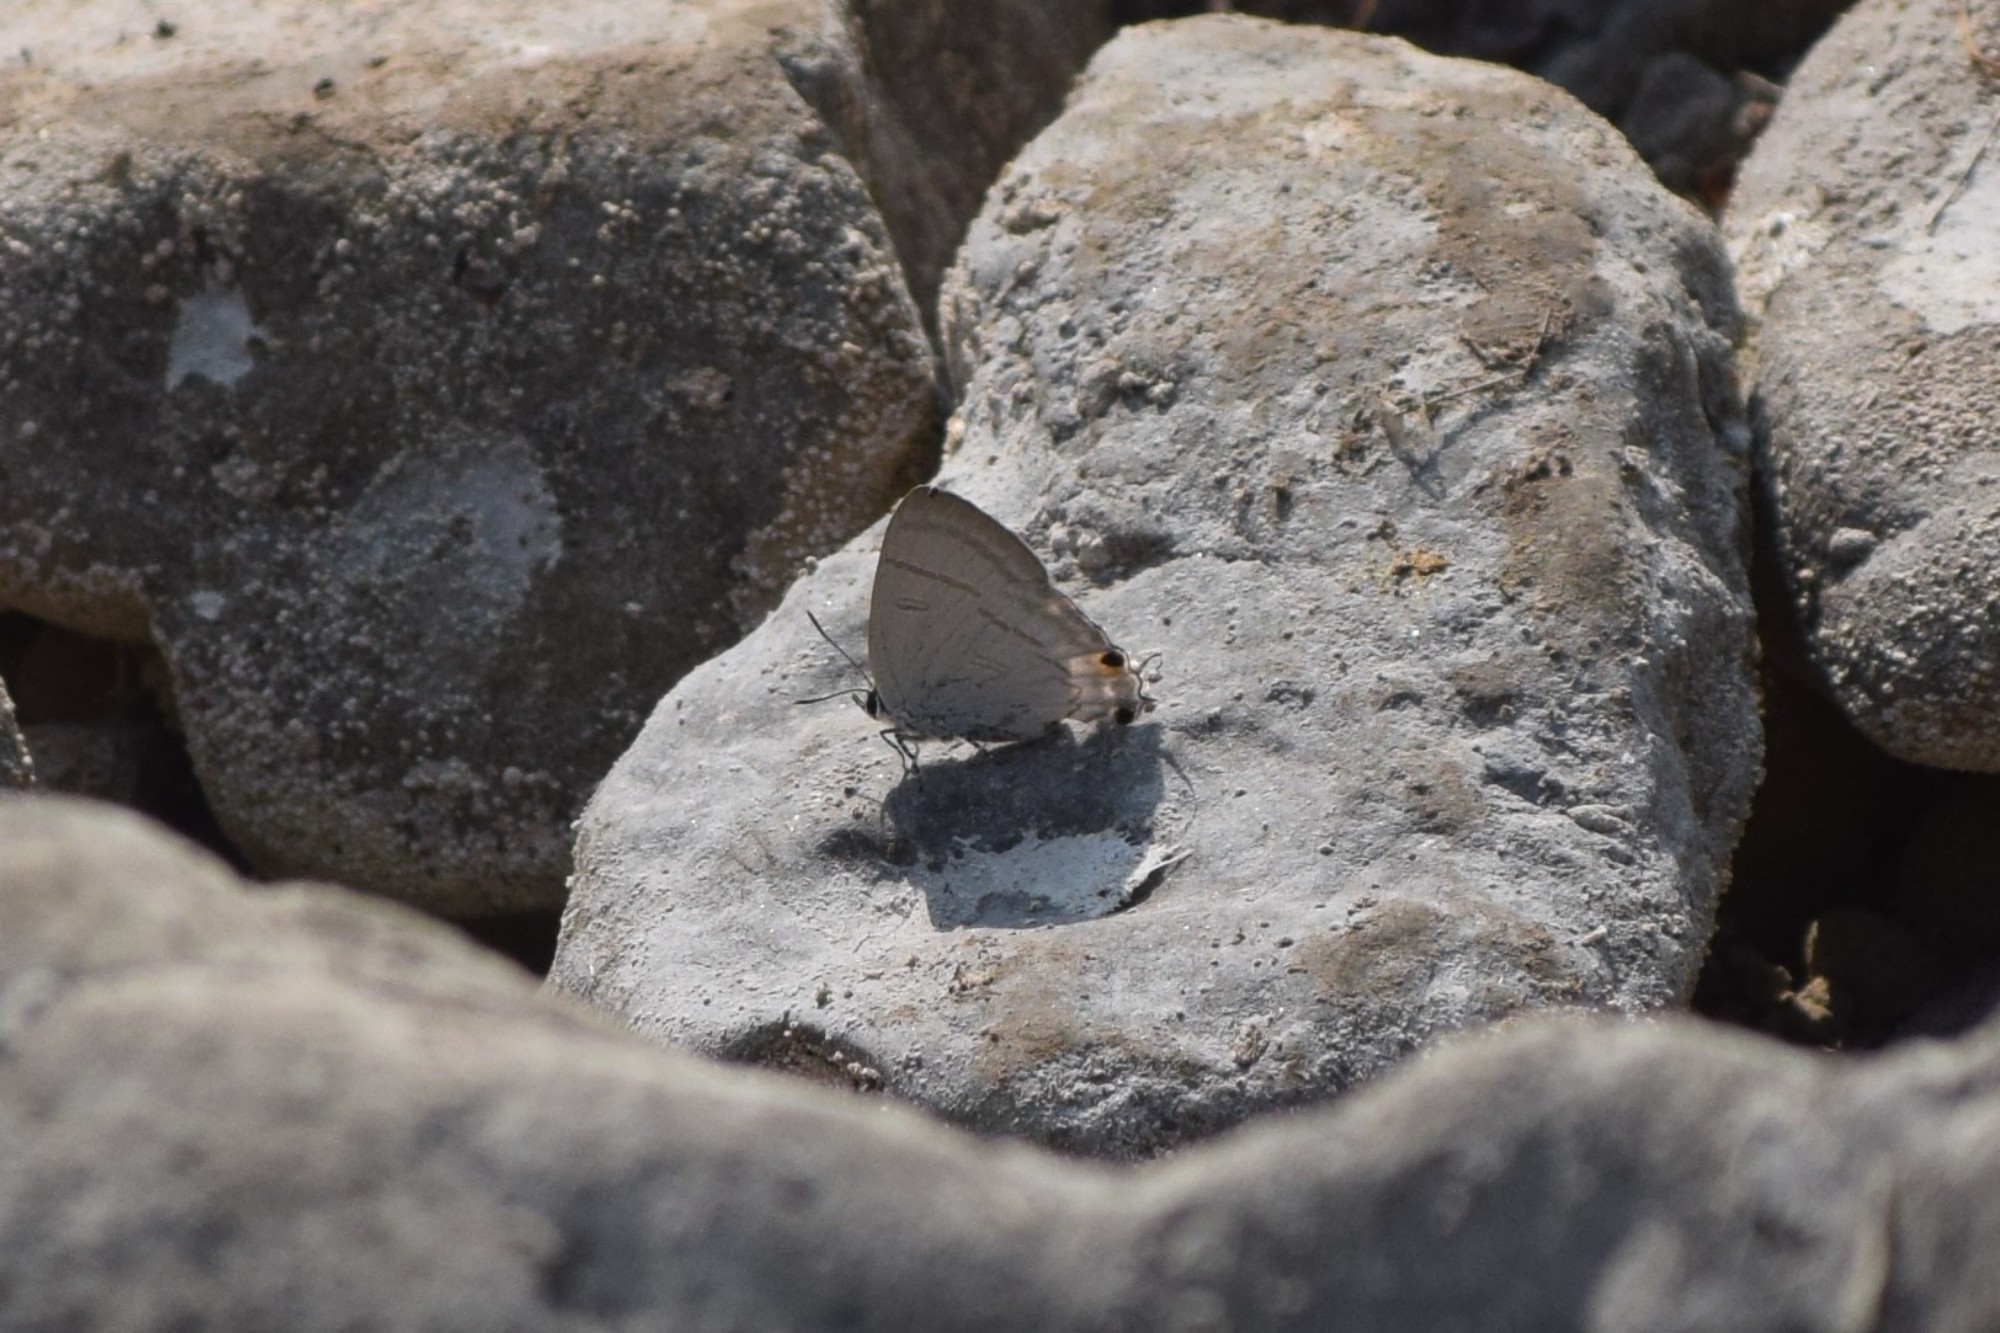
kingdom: Animalia
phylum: Arthropoda
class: Insecta
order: Lepidoptera
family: Lycaenidae
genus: Hypolycaena
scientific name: Hypolycaena erylus
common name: Common tit
